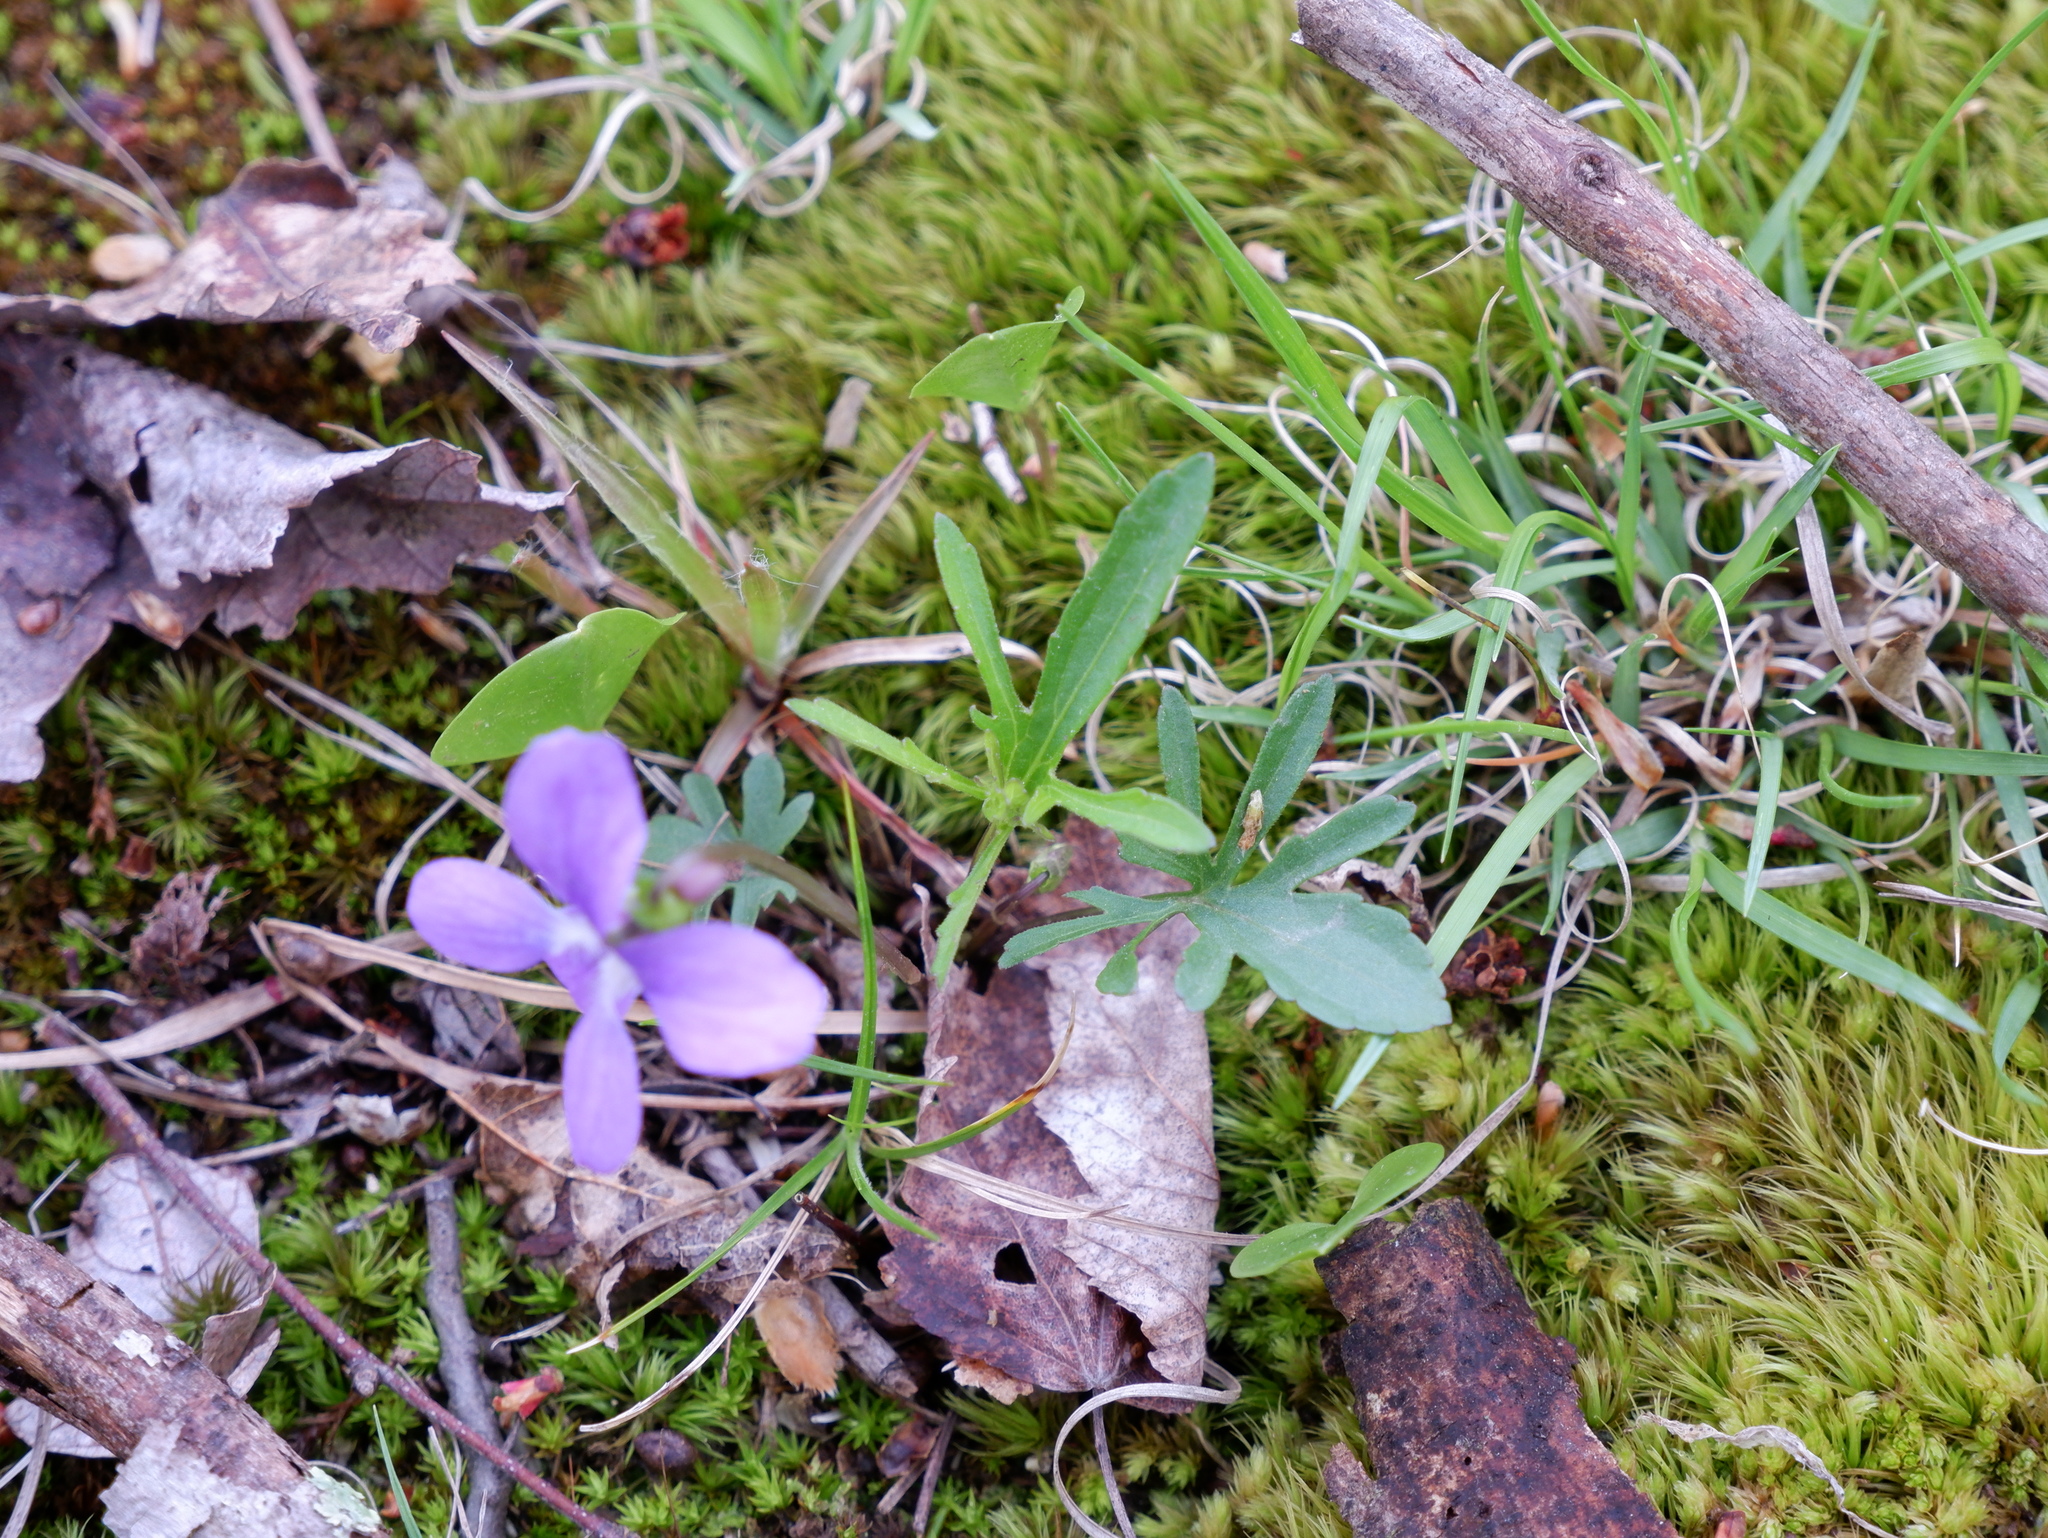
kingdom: Plantae
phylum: Tracheophyta
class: Magnoliopsida
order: Malpighiales
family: Violaceae
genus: Viola
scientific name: Viola brittoniana
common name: Northern coastal violet
